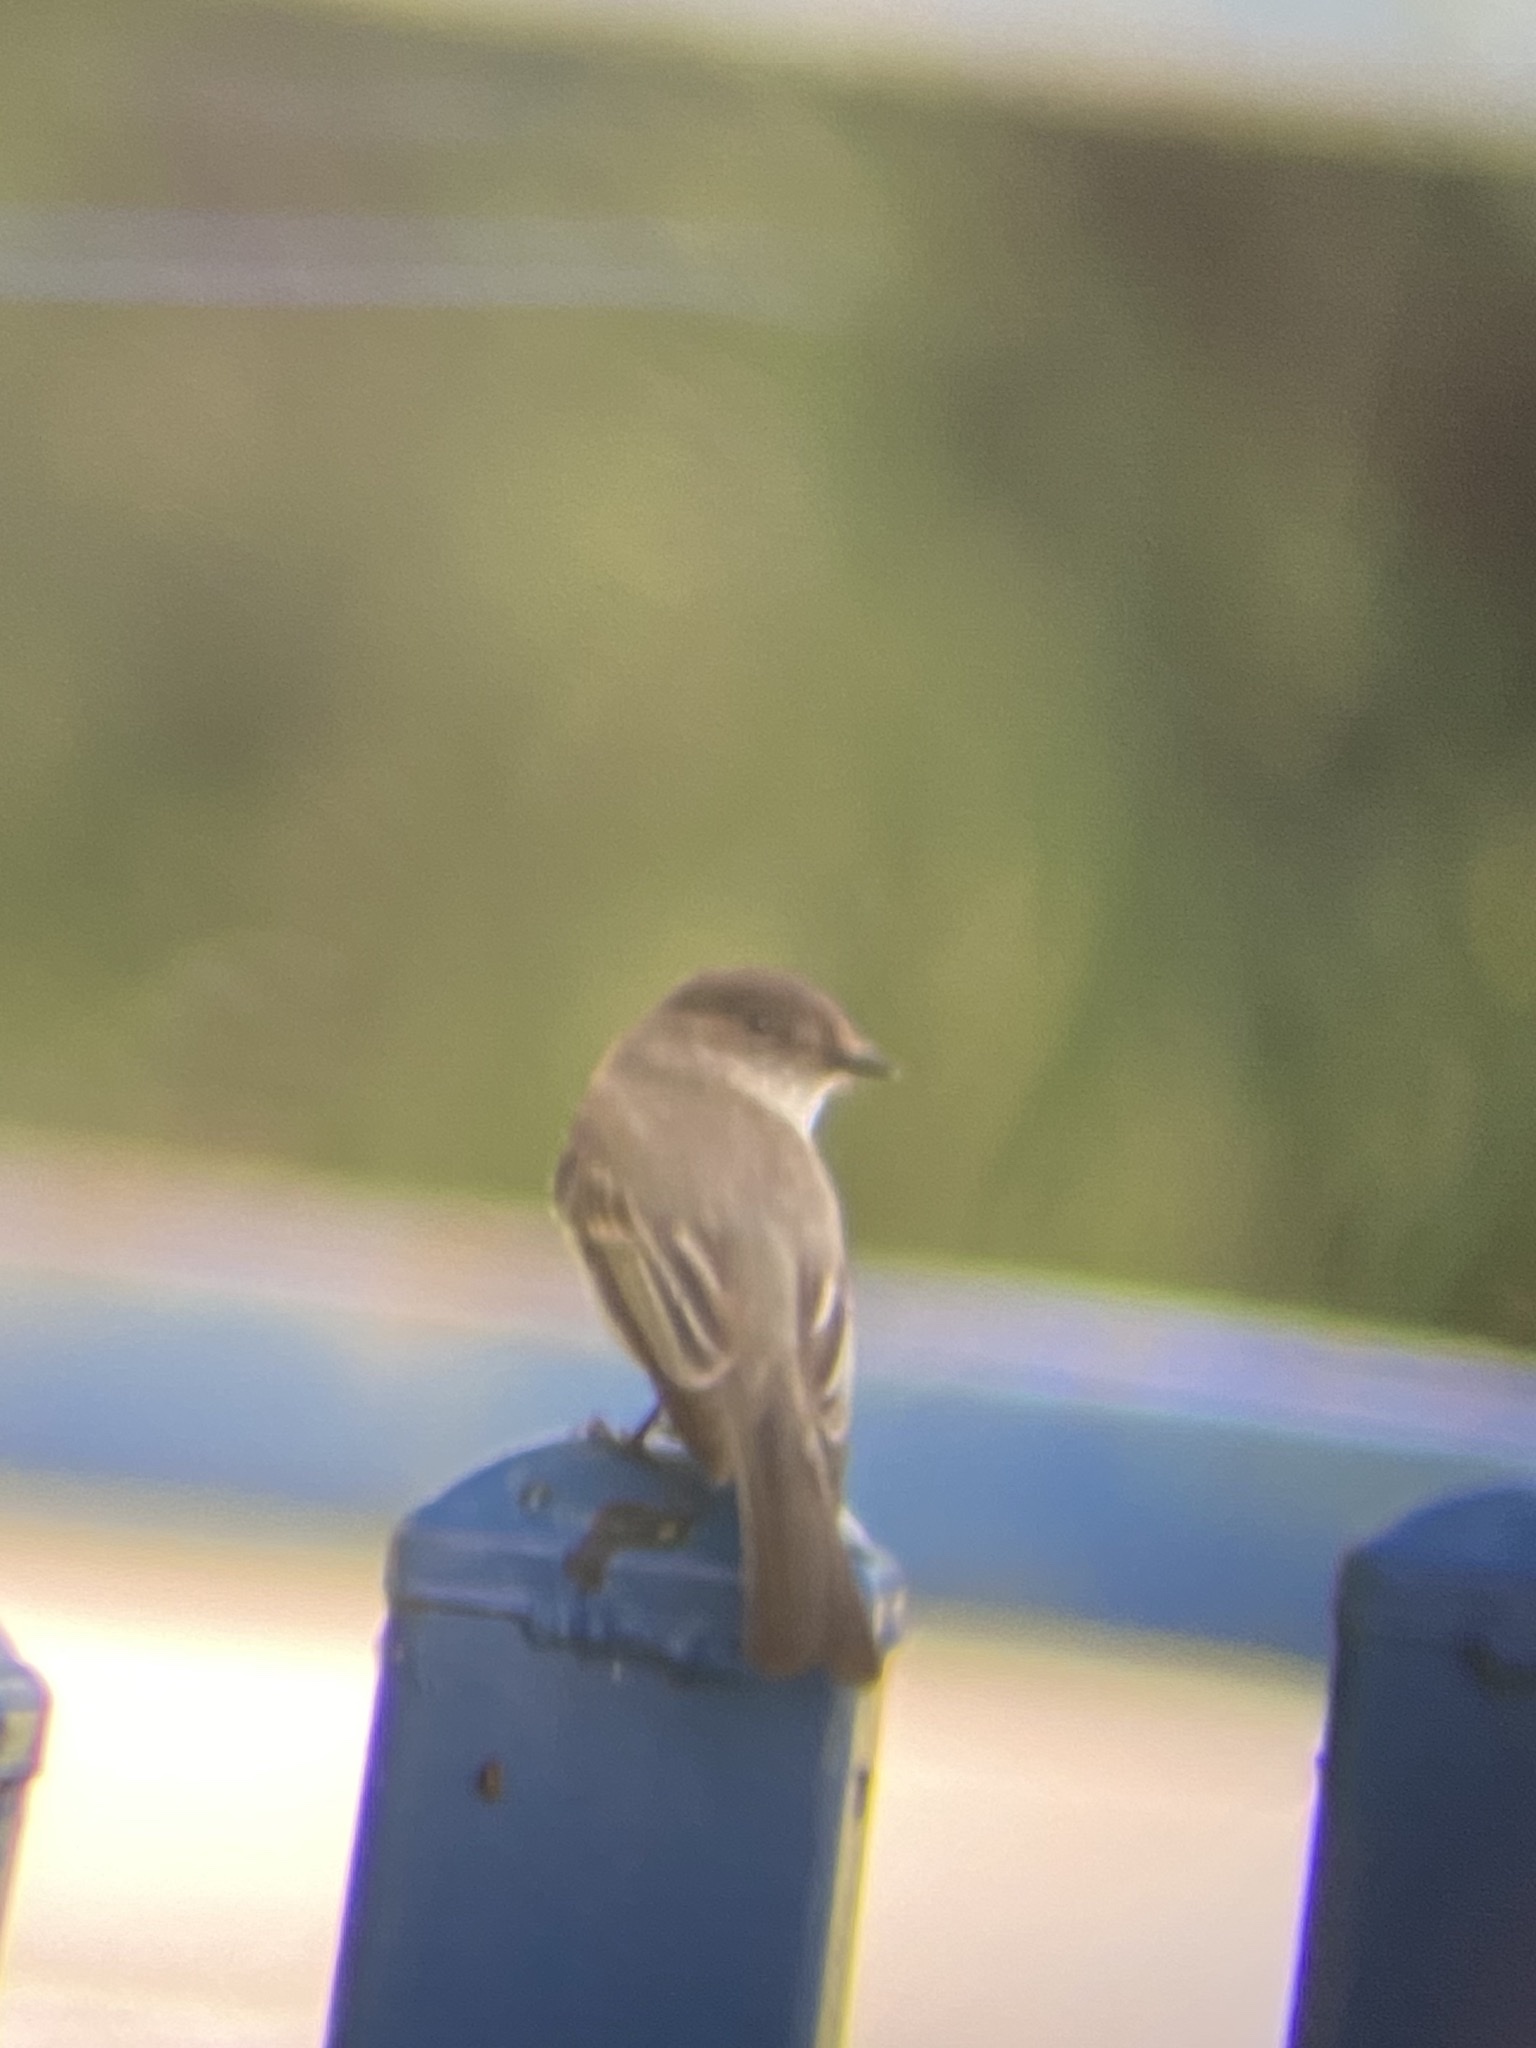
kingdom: Animalia
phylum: Chordata
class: Aves
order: Passeriformes
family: Tyrannidae
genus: Sayornis
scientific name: Sayornis phoebe
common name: Eastern phoebe
